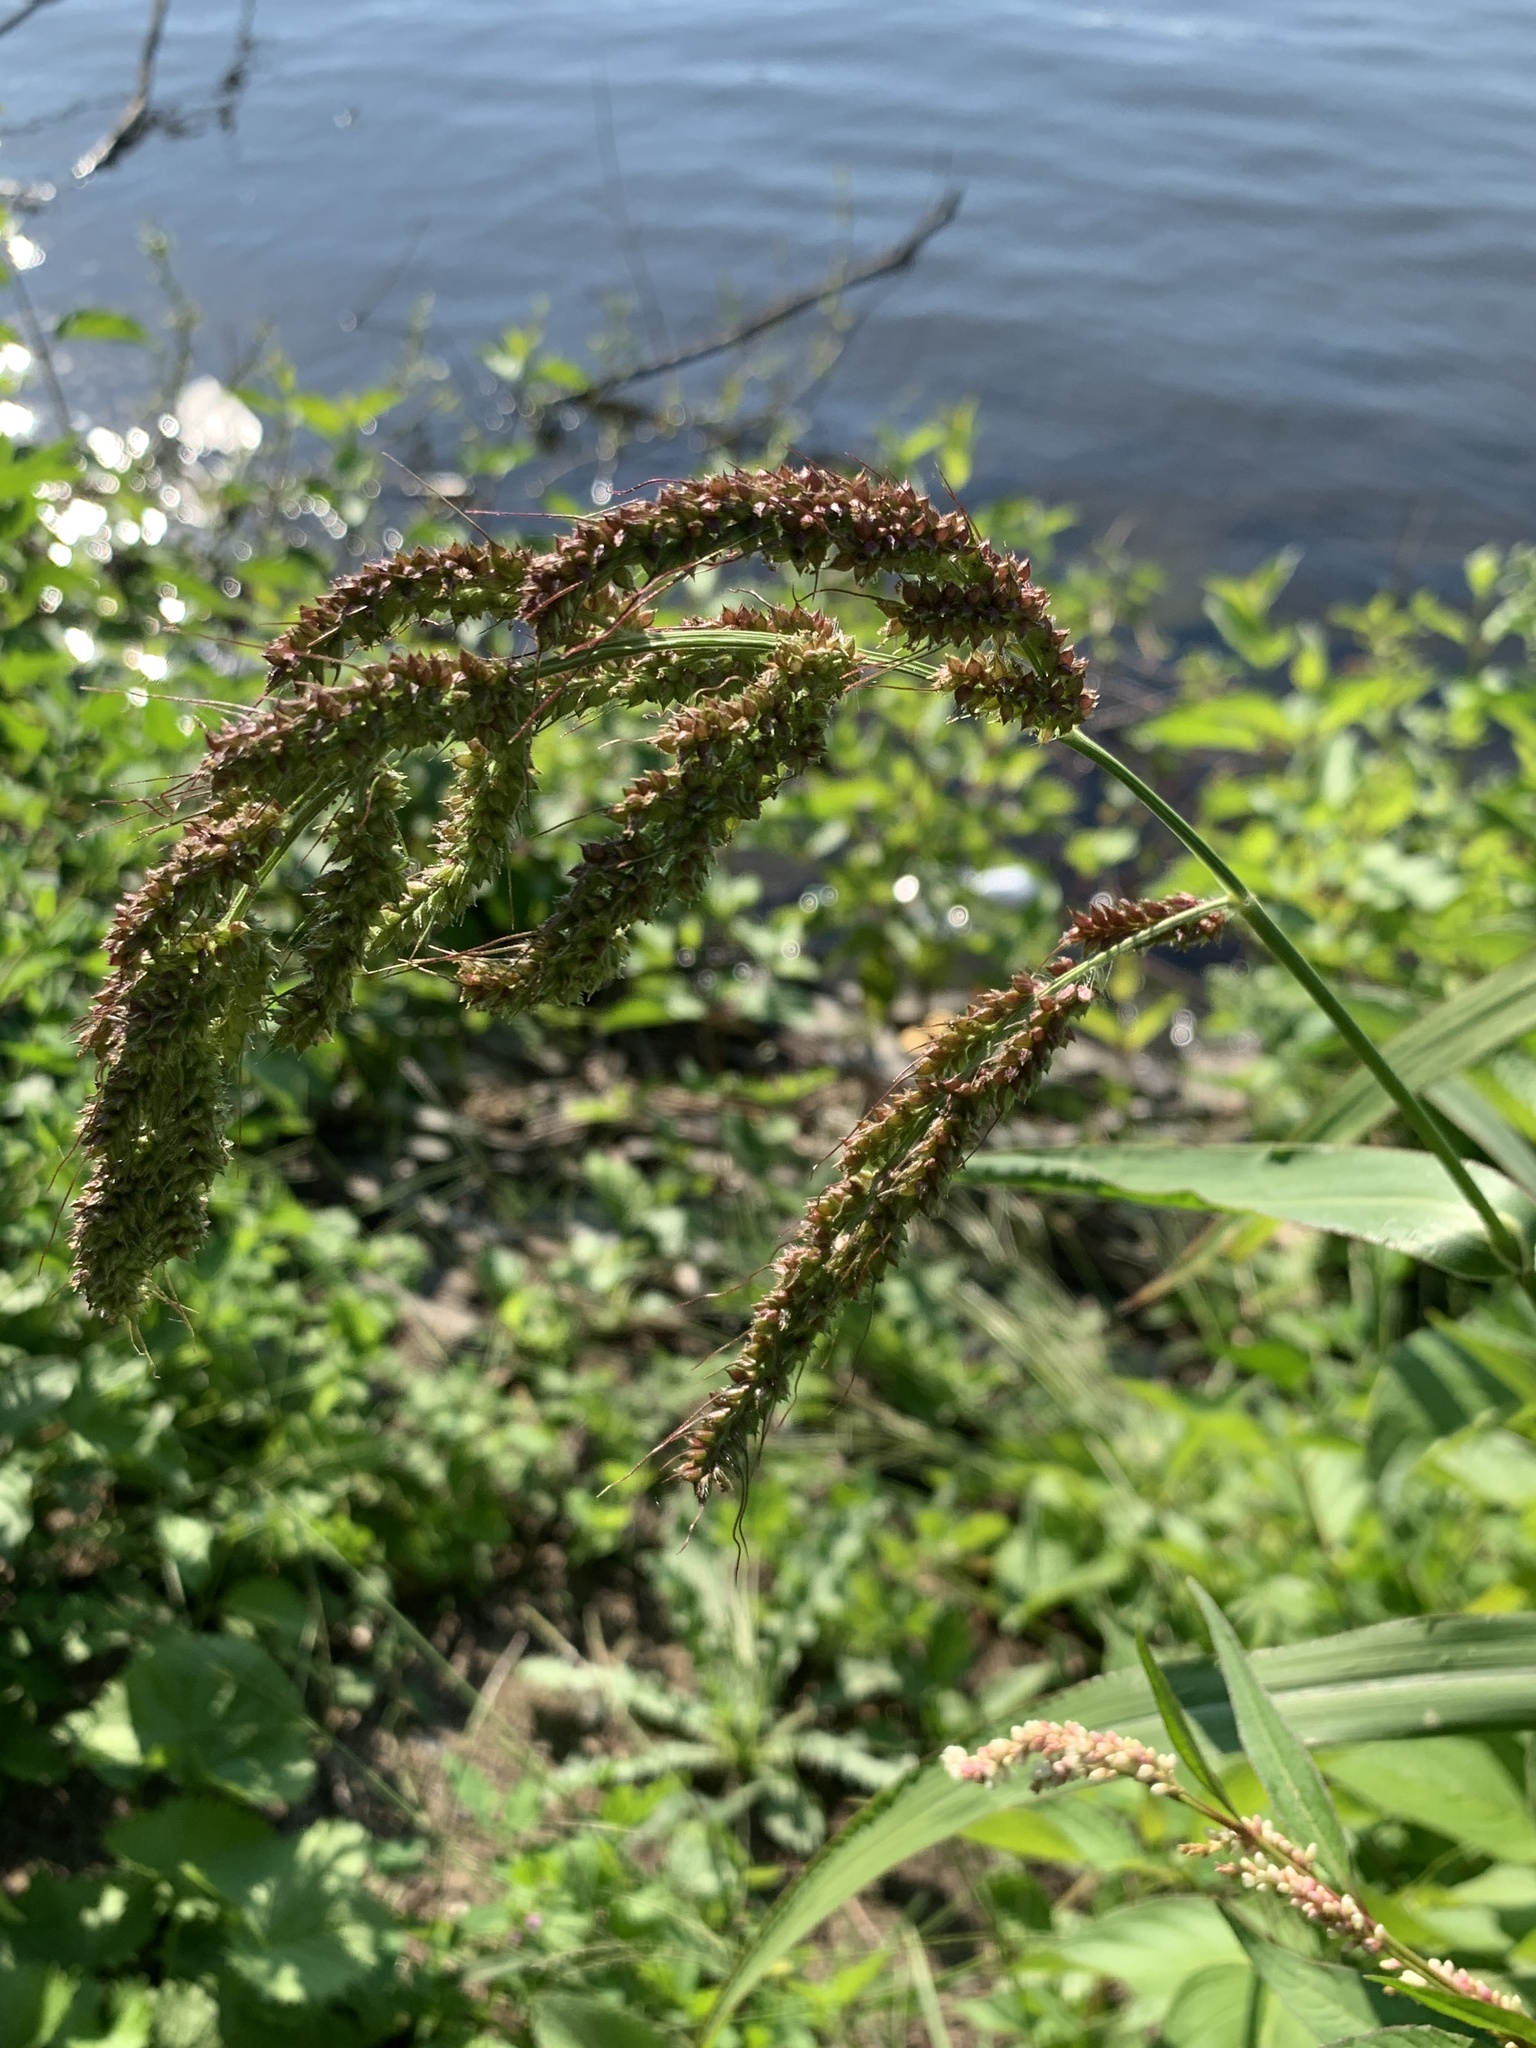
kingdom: Plantae
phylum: Tracheophyta
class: Liliopsida
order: Poales
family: Poaceae
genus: Echinochloa
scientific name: Echinochloa crus-galli
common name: Cockspur
